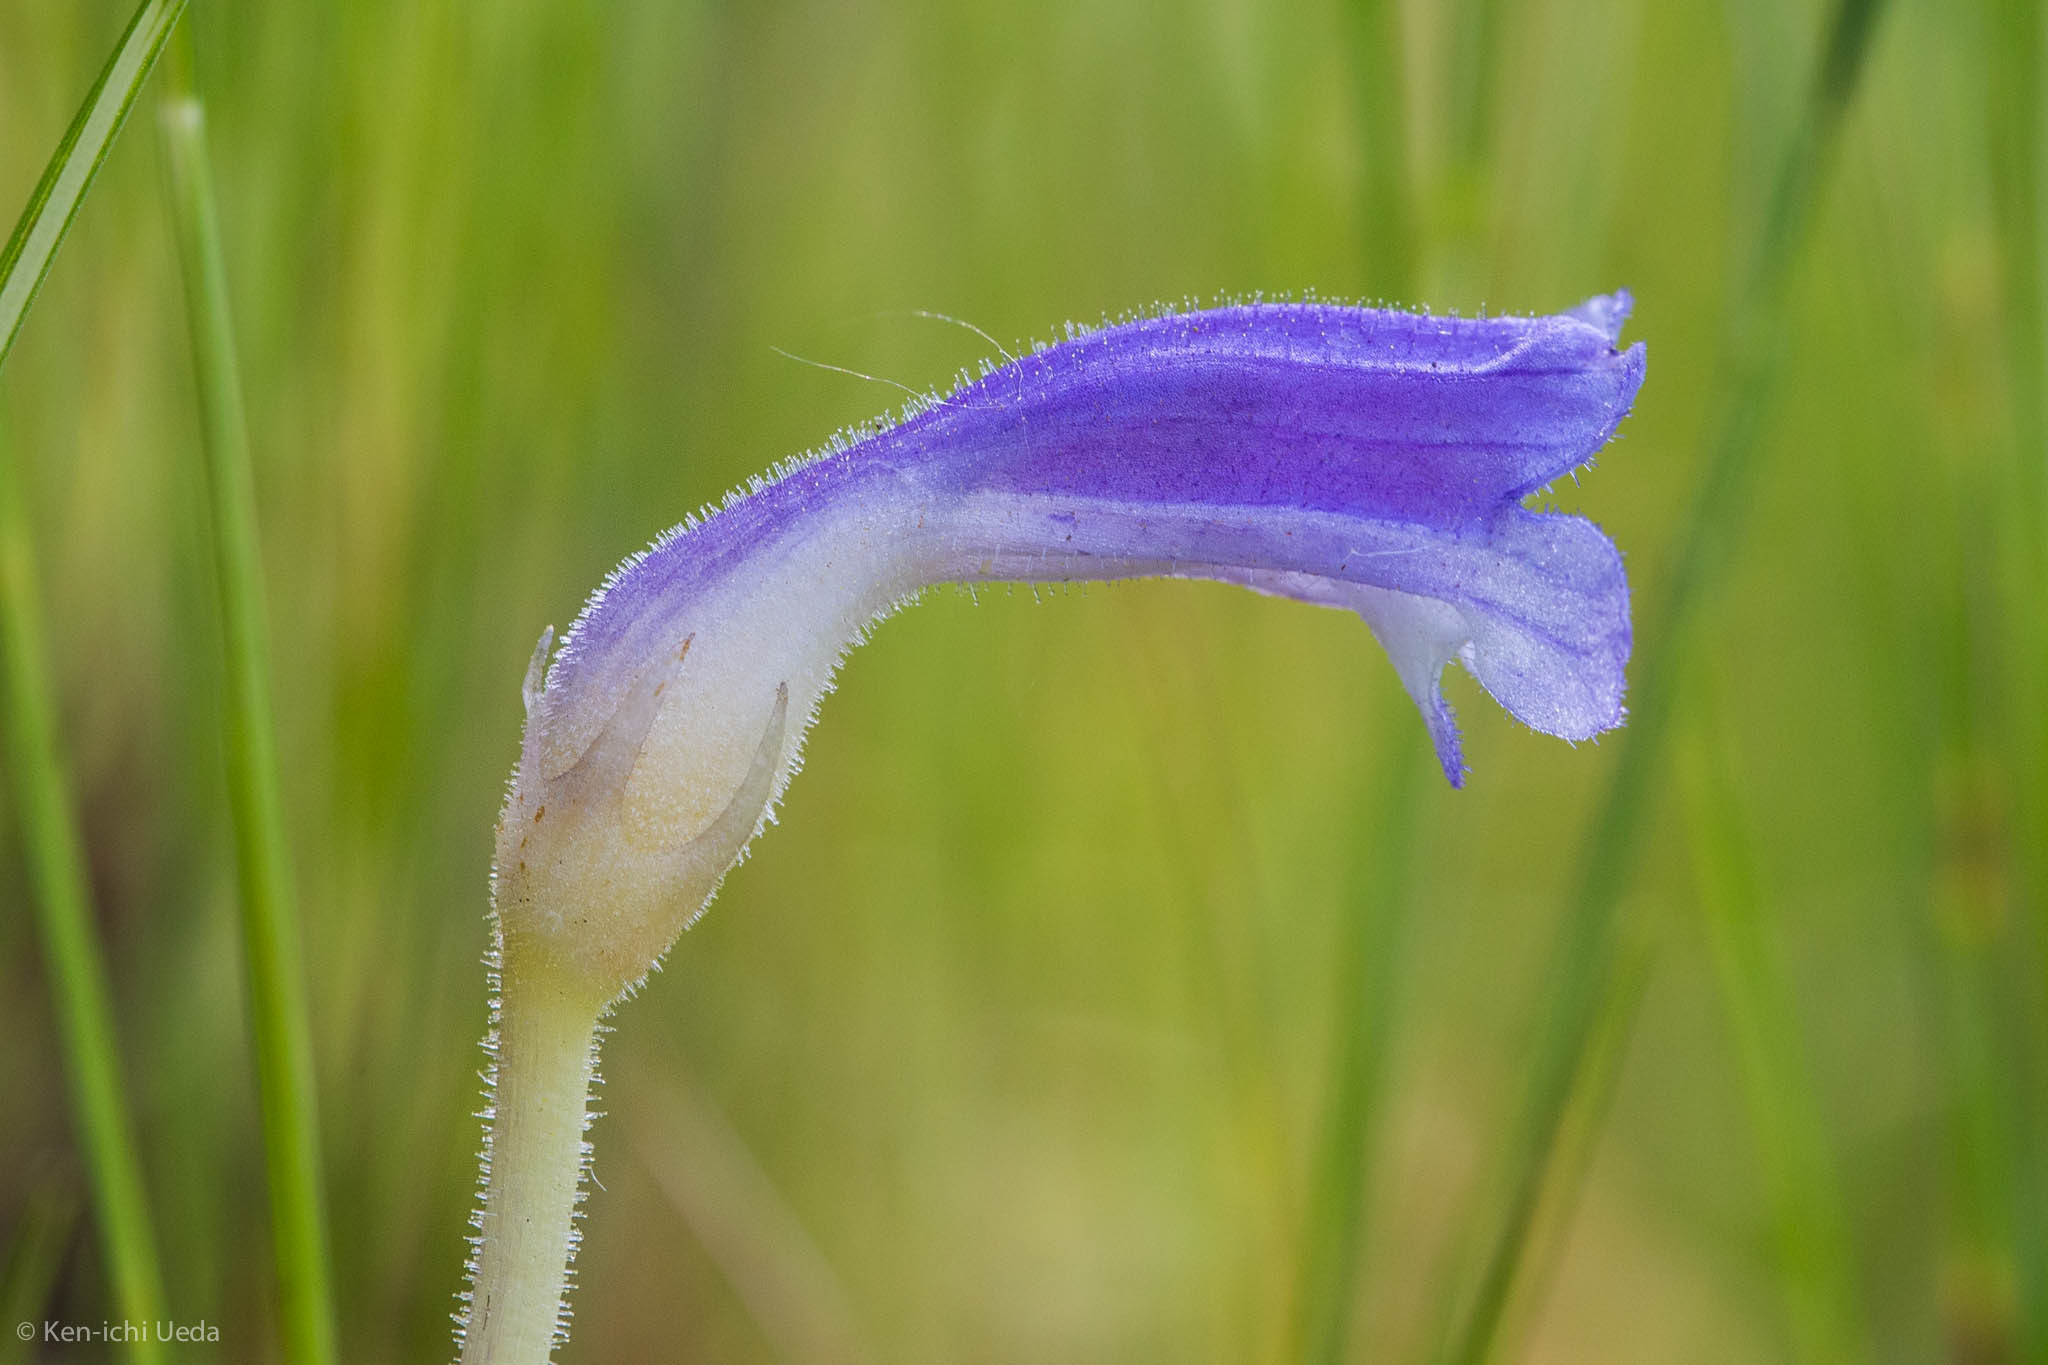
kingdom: Plantae
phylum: Tracheophyta
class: Magnoliopsida
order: Lamiales
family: Orobanchaceae
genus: Aphyllon
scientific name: Aphyllon uniflorum
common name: One-flowered broomrape
